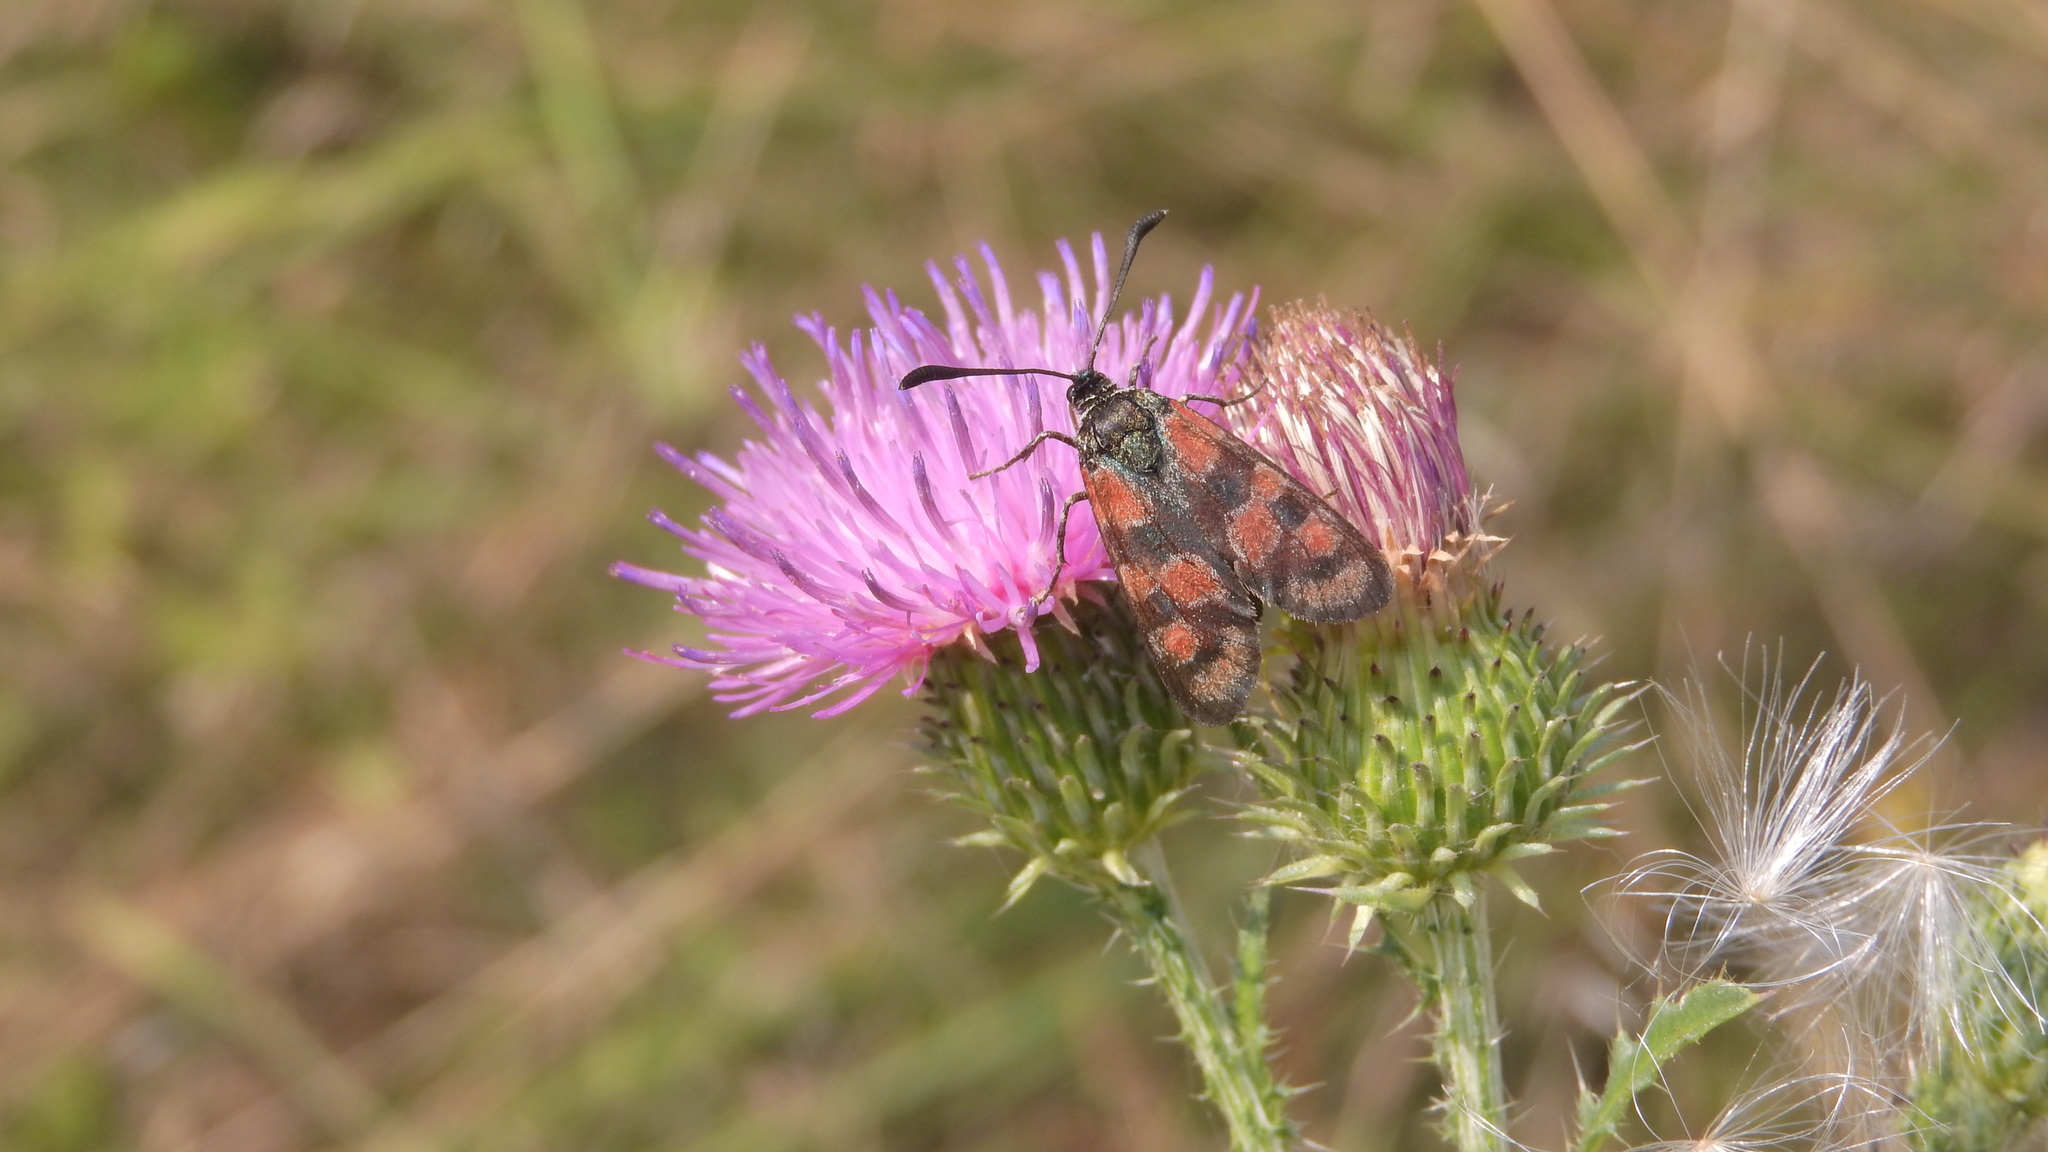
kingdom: Animalia
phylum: Arthropoda
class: Insecta
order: Lepidoptera
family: Zygaenidae
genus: Zygaena
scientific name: Zygaena carniolica
